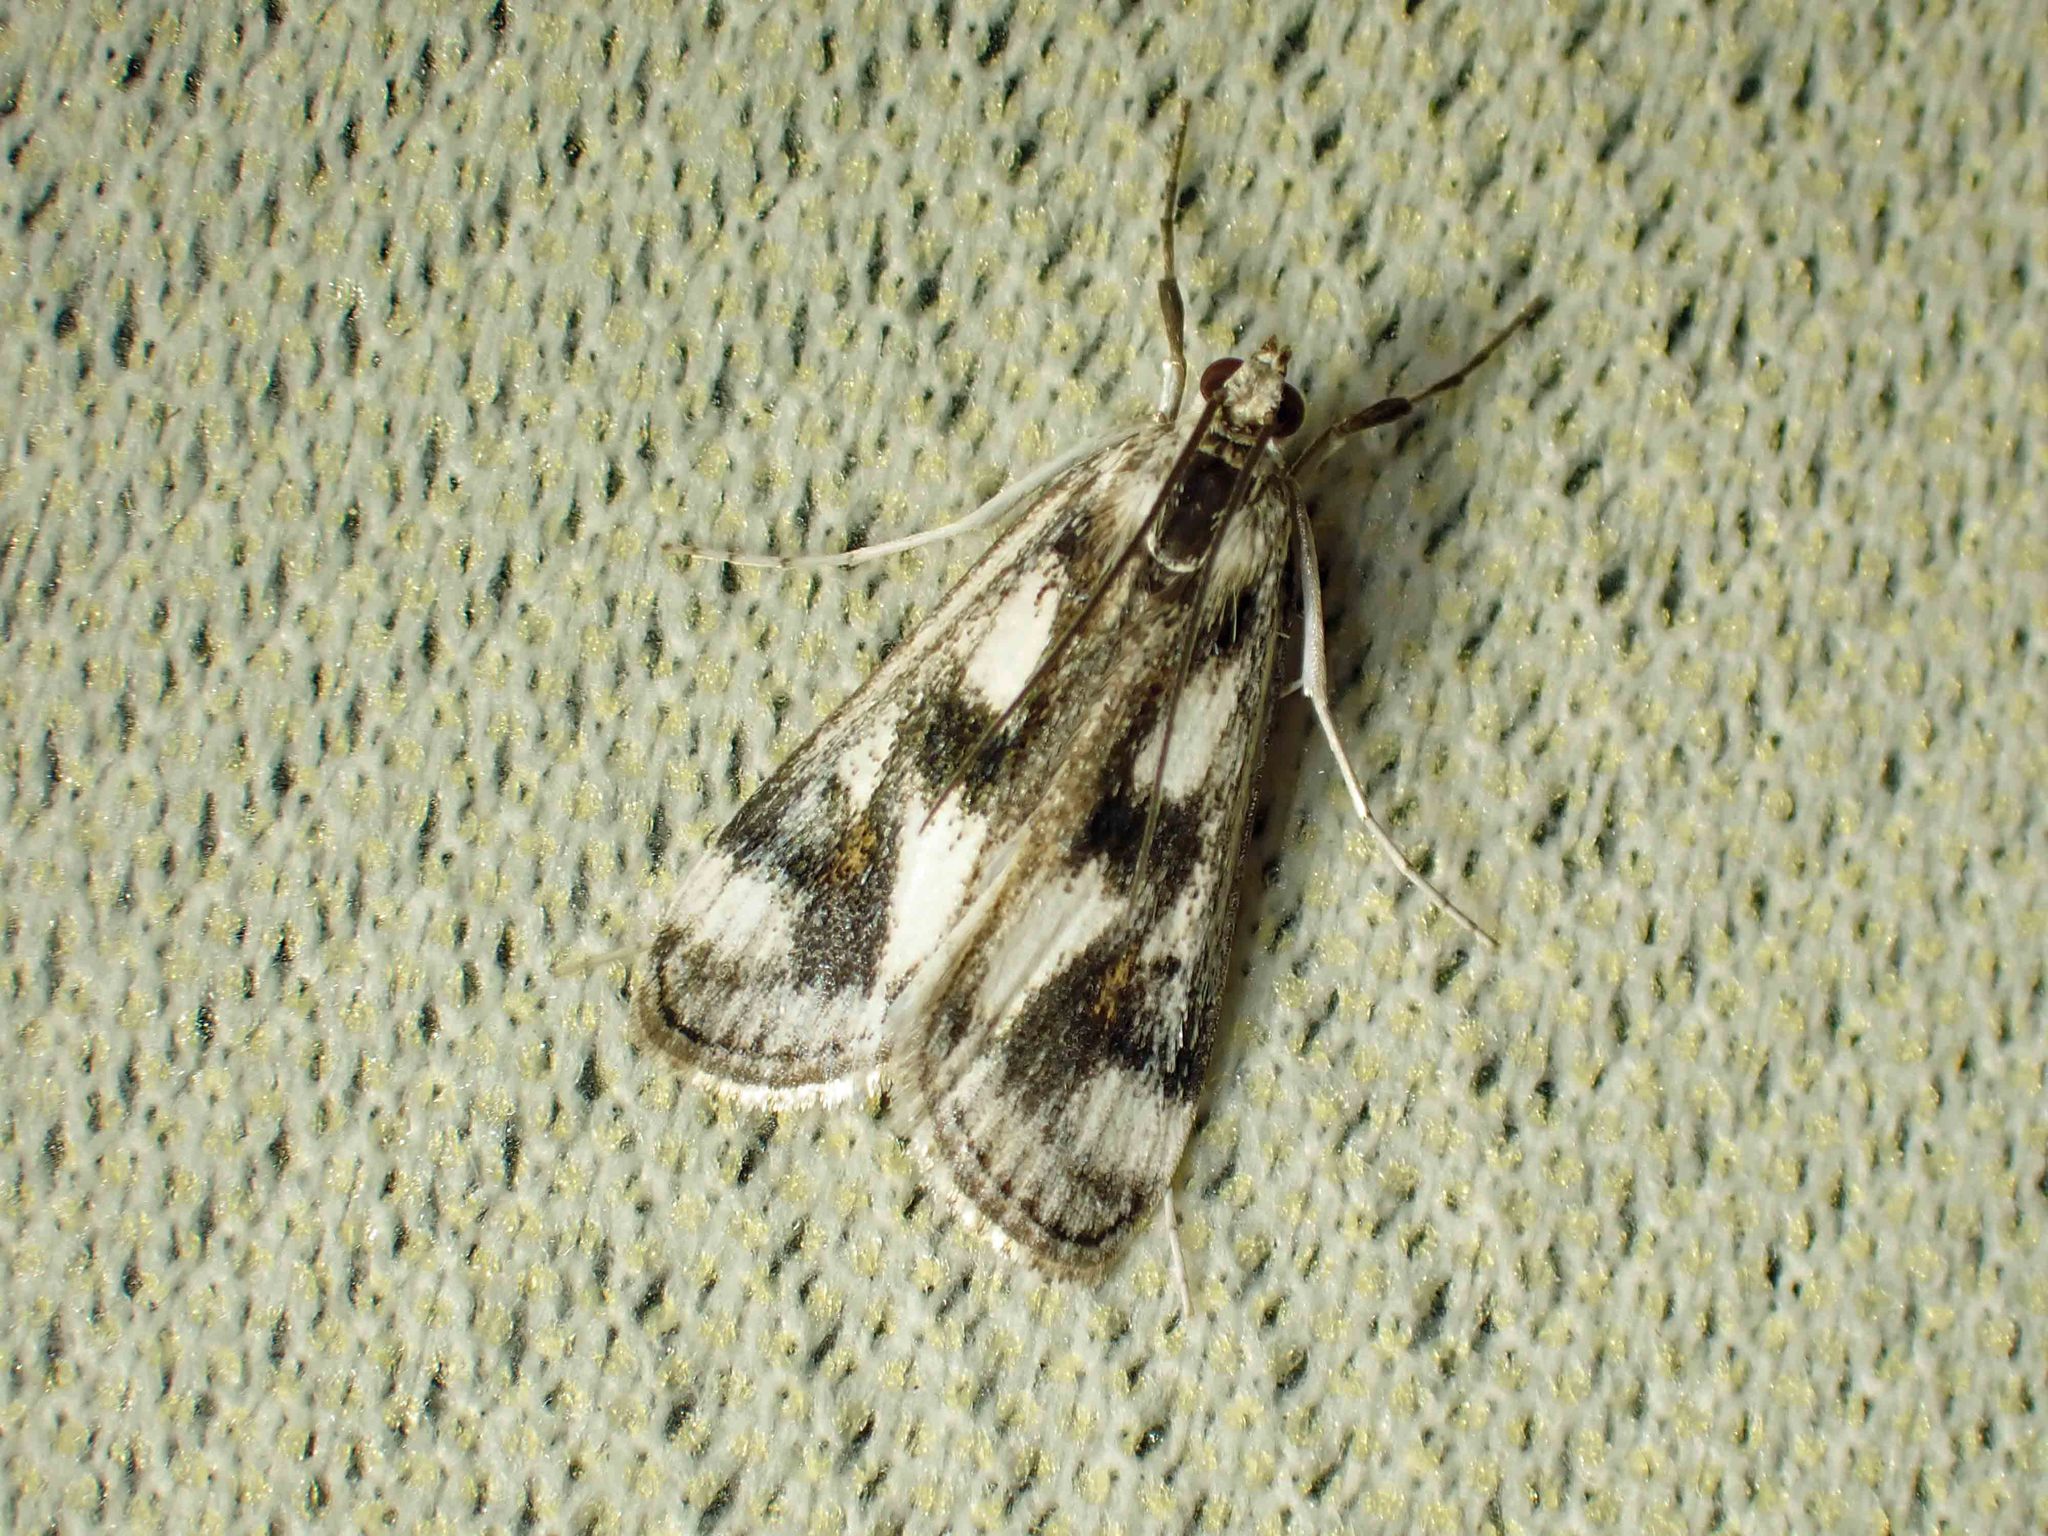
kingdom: Animalia
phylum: Arthropoda
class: Insecta
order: Lepidoptera
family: Crambidae
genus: Parapoynx
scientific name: Parapoynx maculalis
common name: Polymorphic pondweed moth
